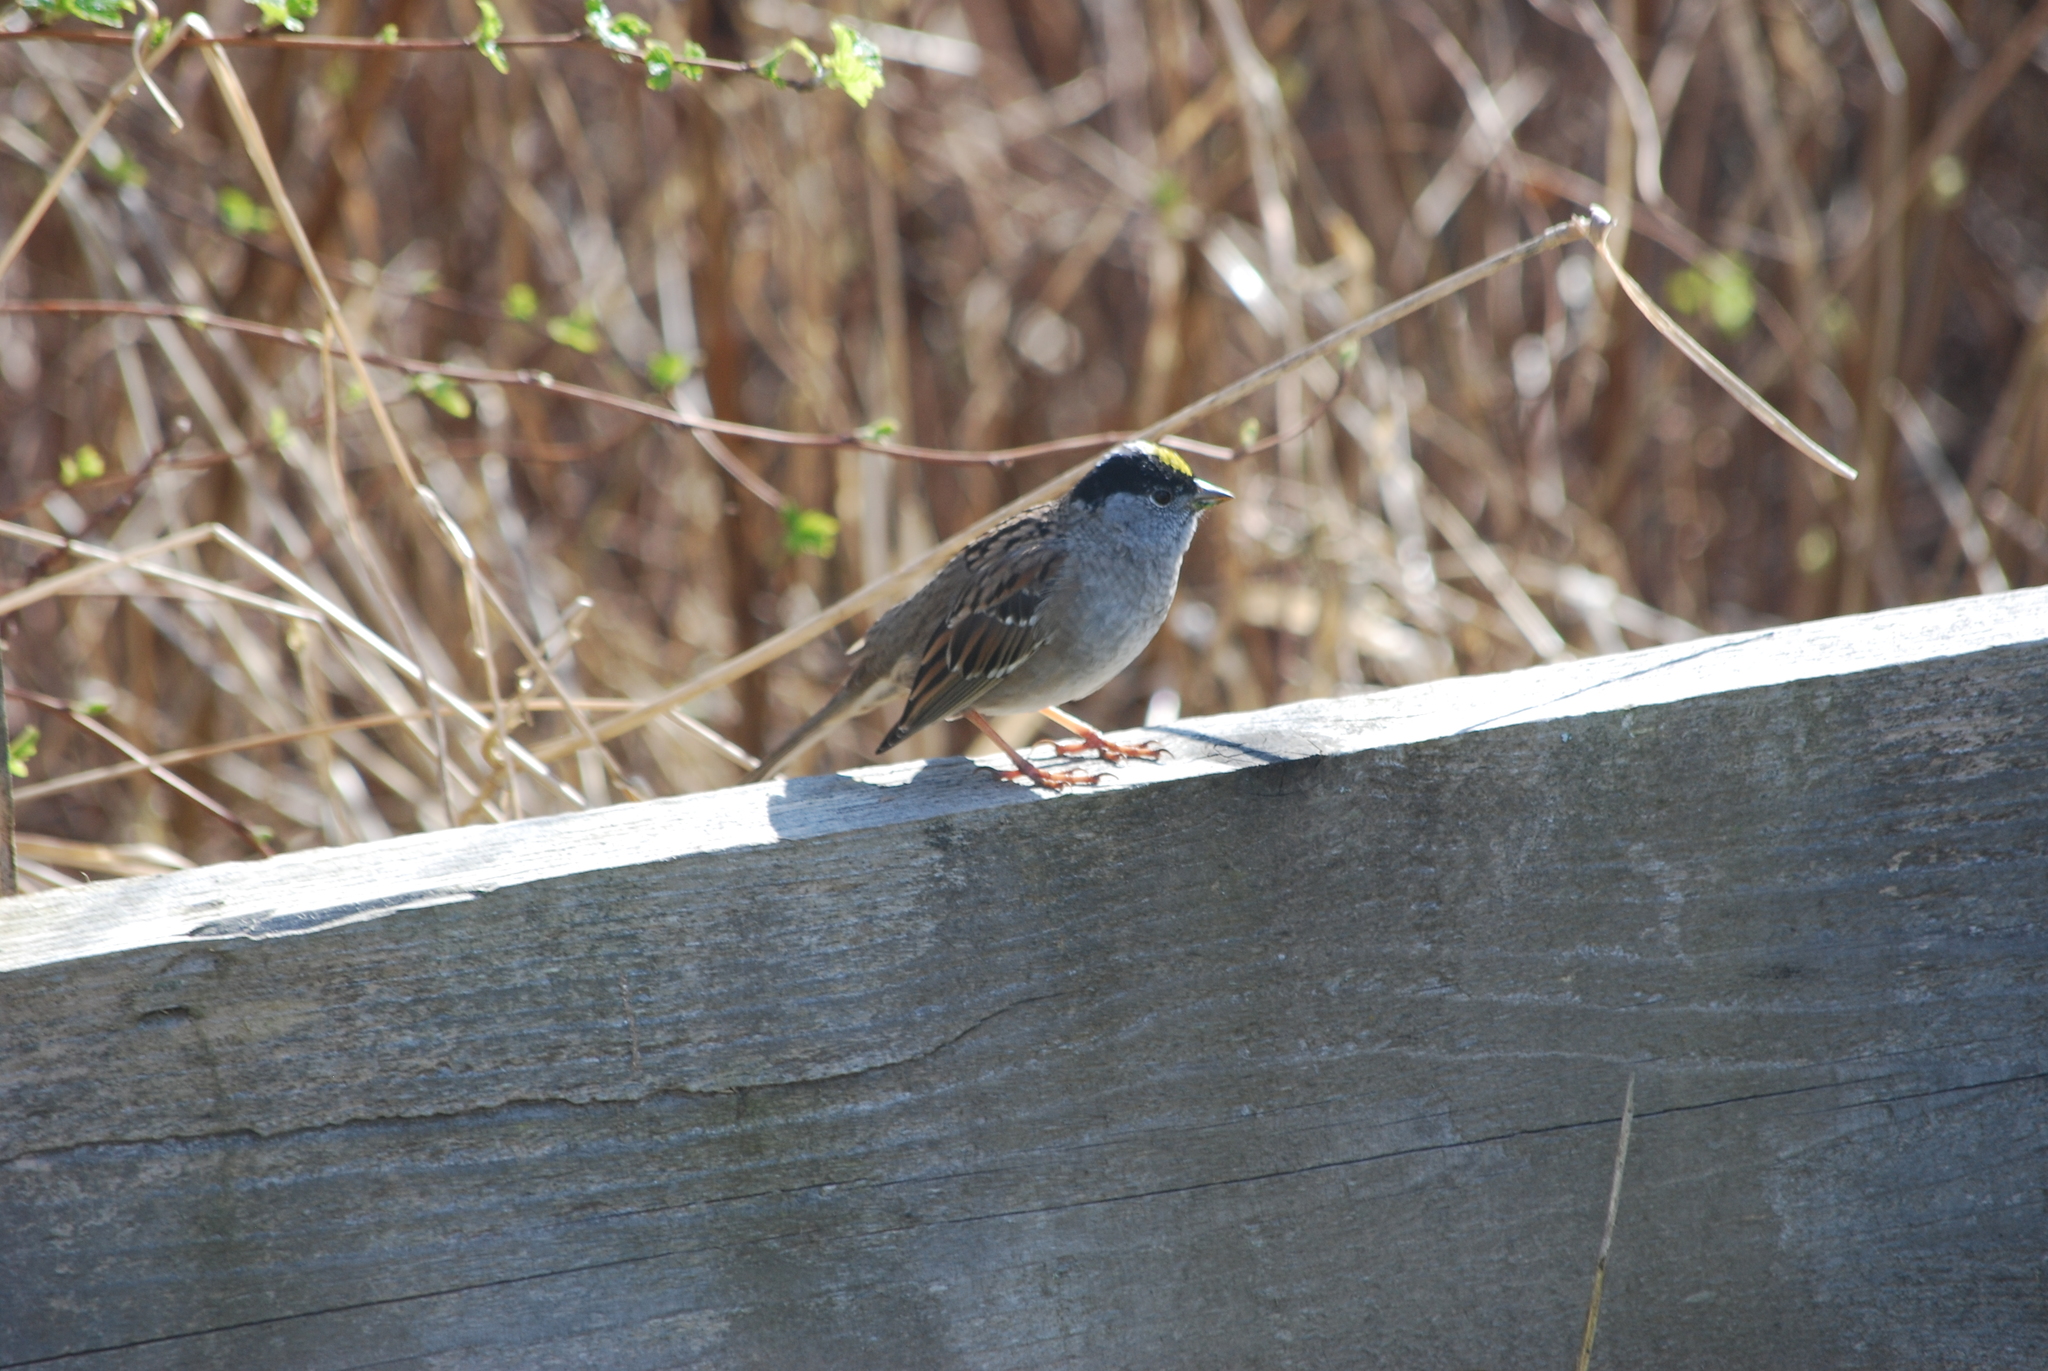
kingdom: Animalia
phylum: Chordata
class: Aves
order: Passeriformes
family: Passerellidae
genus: Zonotrichia
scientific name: Zonotrichia atricapilla
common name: Golden-crowned sparrow
